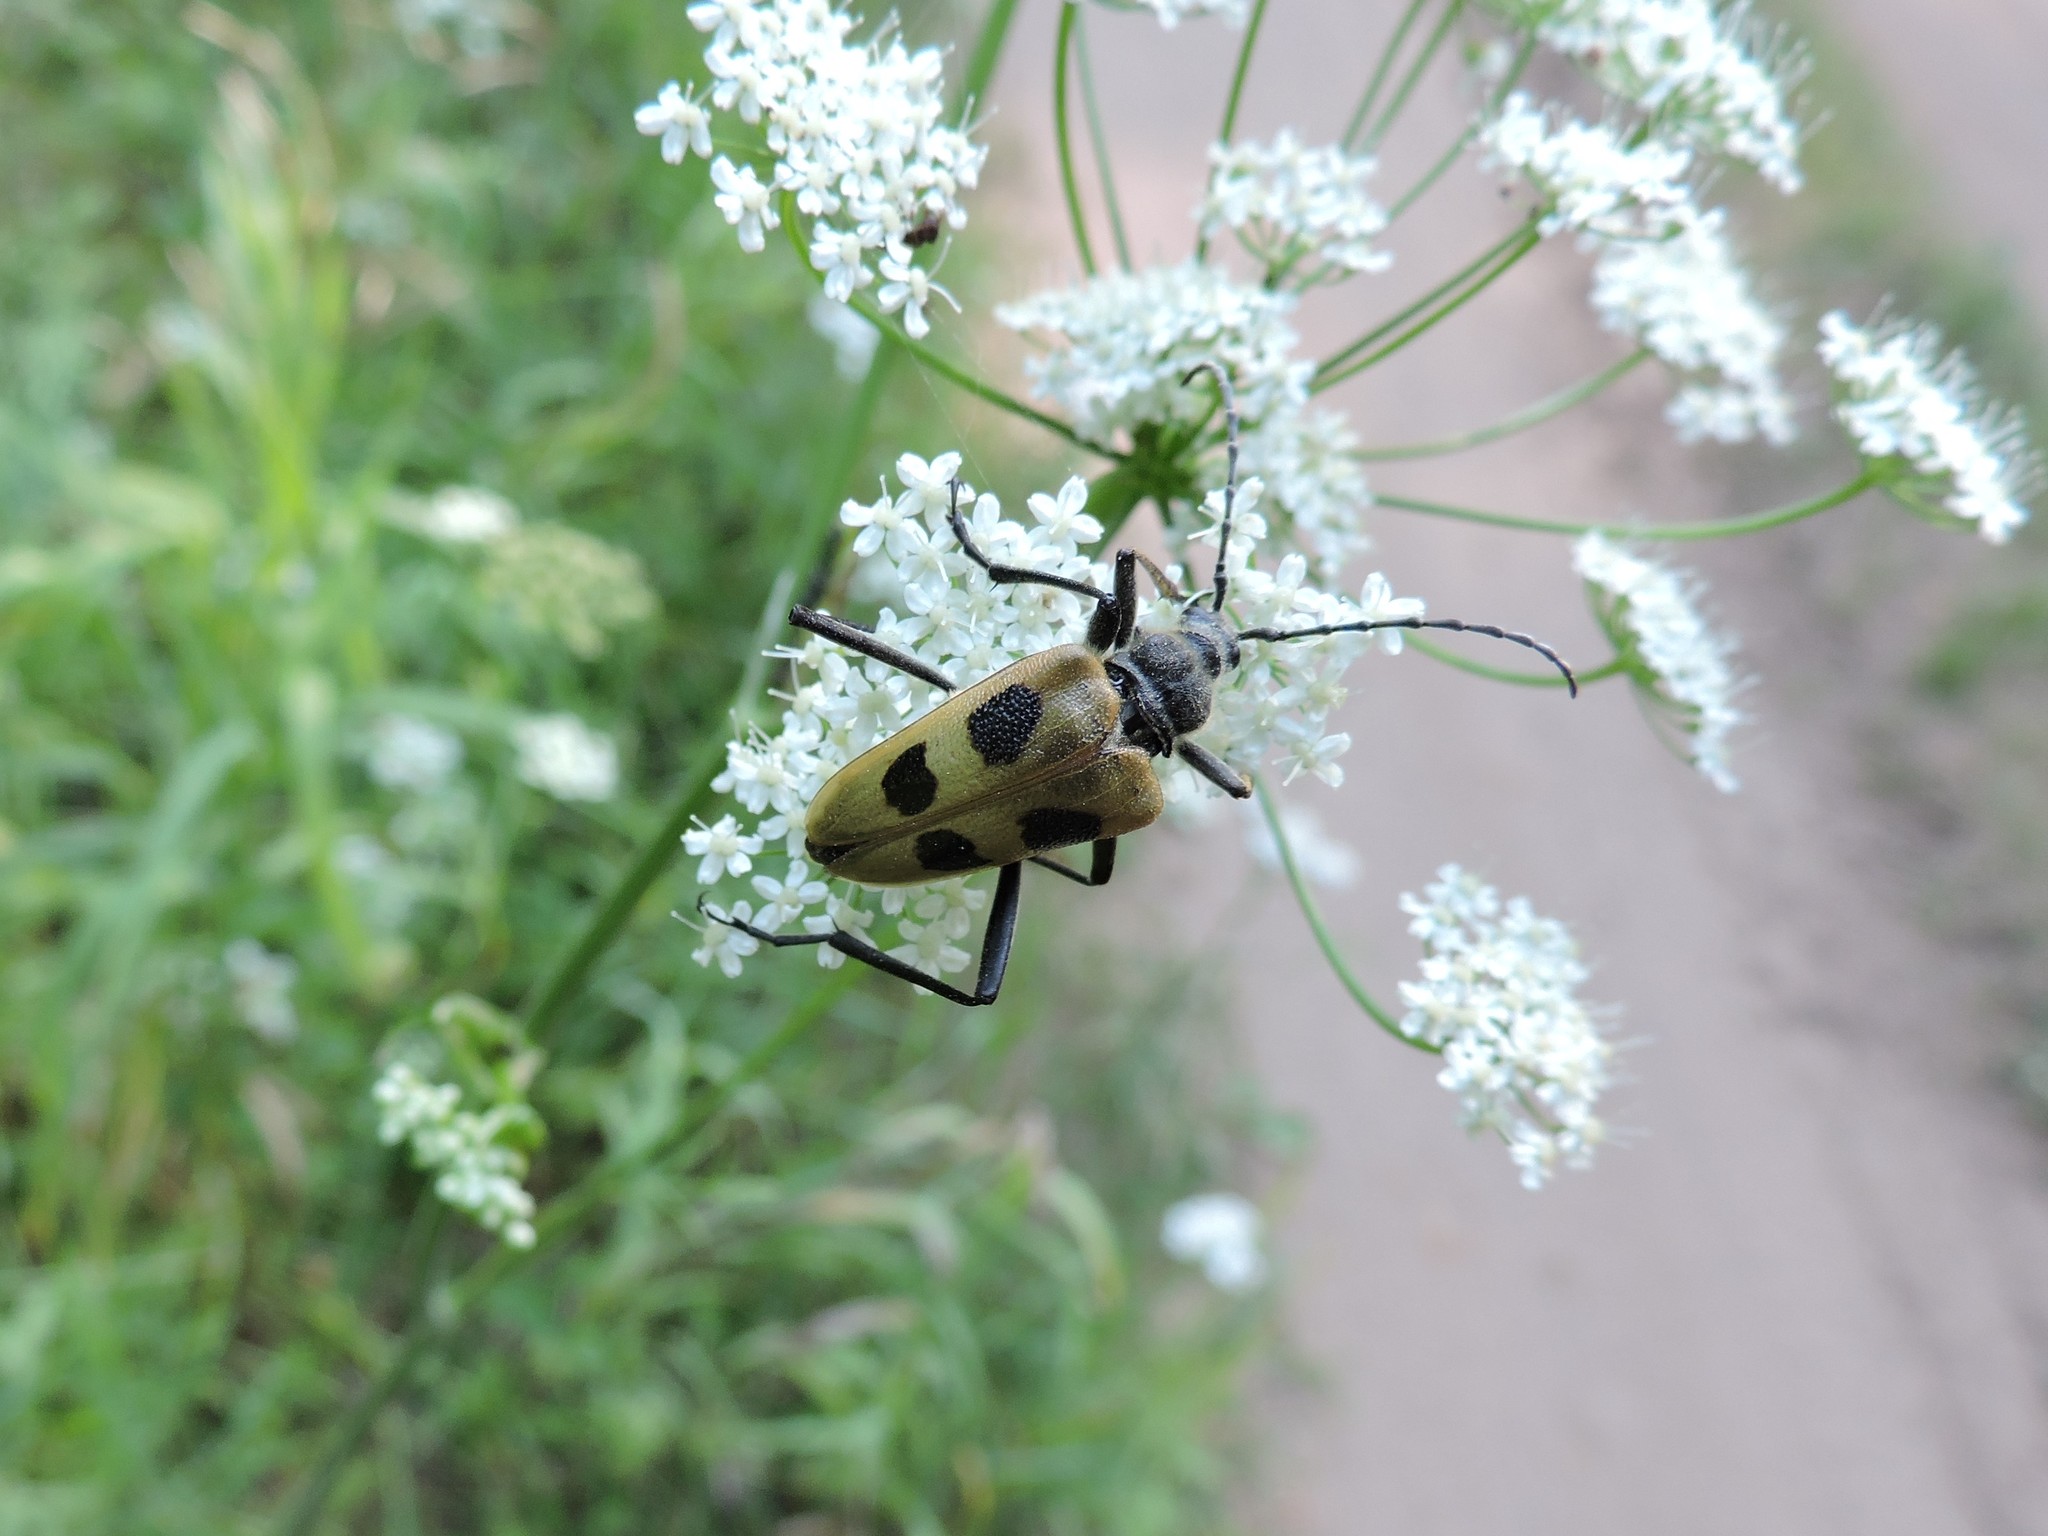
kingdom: Animalia
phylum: Arthropoda
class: Insecta
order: Coleoptera
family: Cerambycidae
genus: Pachyta
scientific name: Pachyta quadrimaculata
